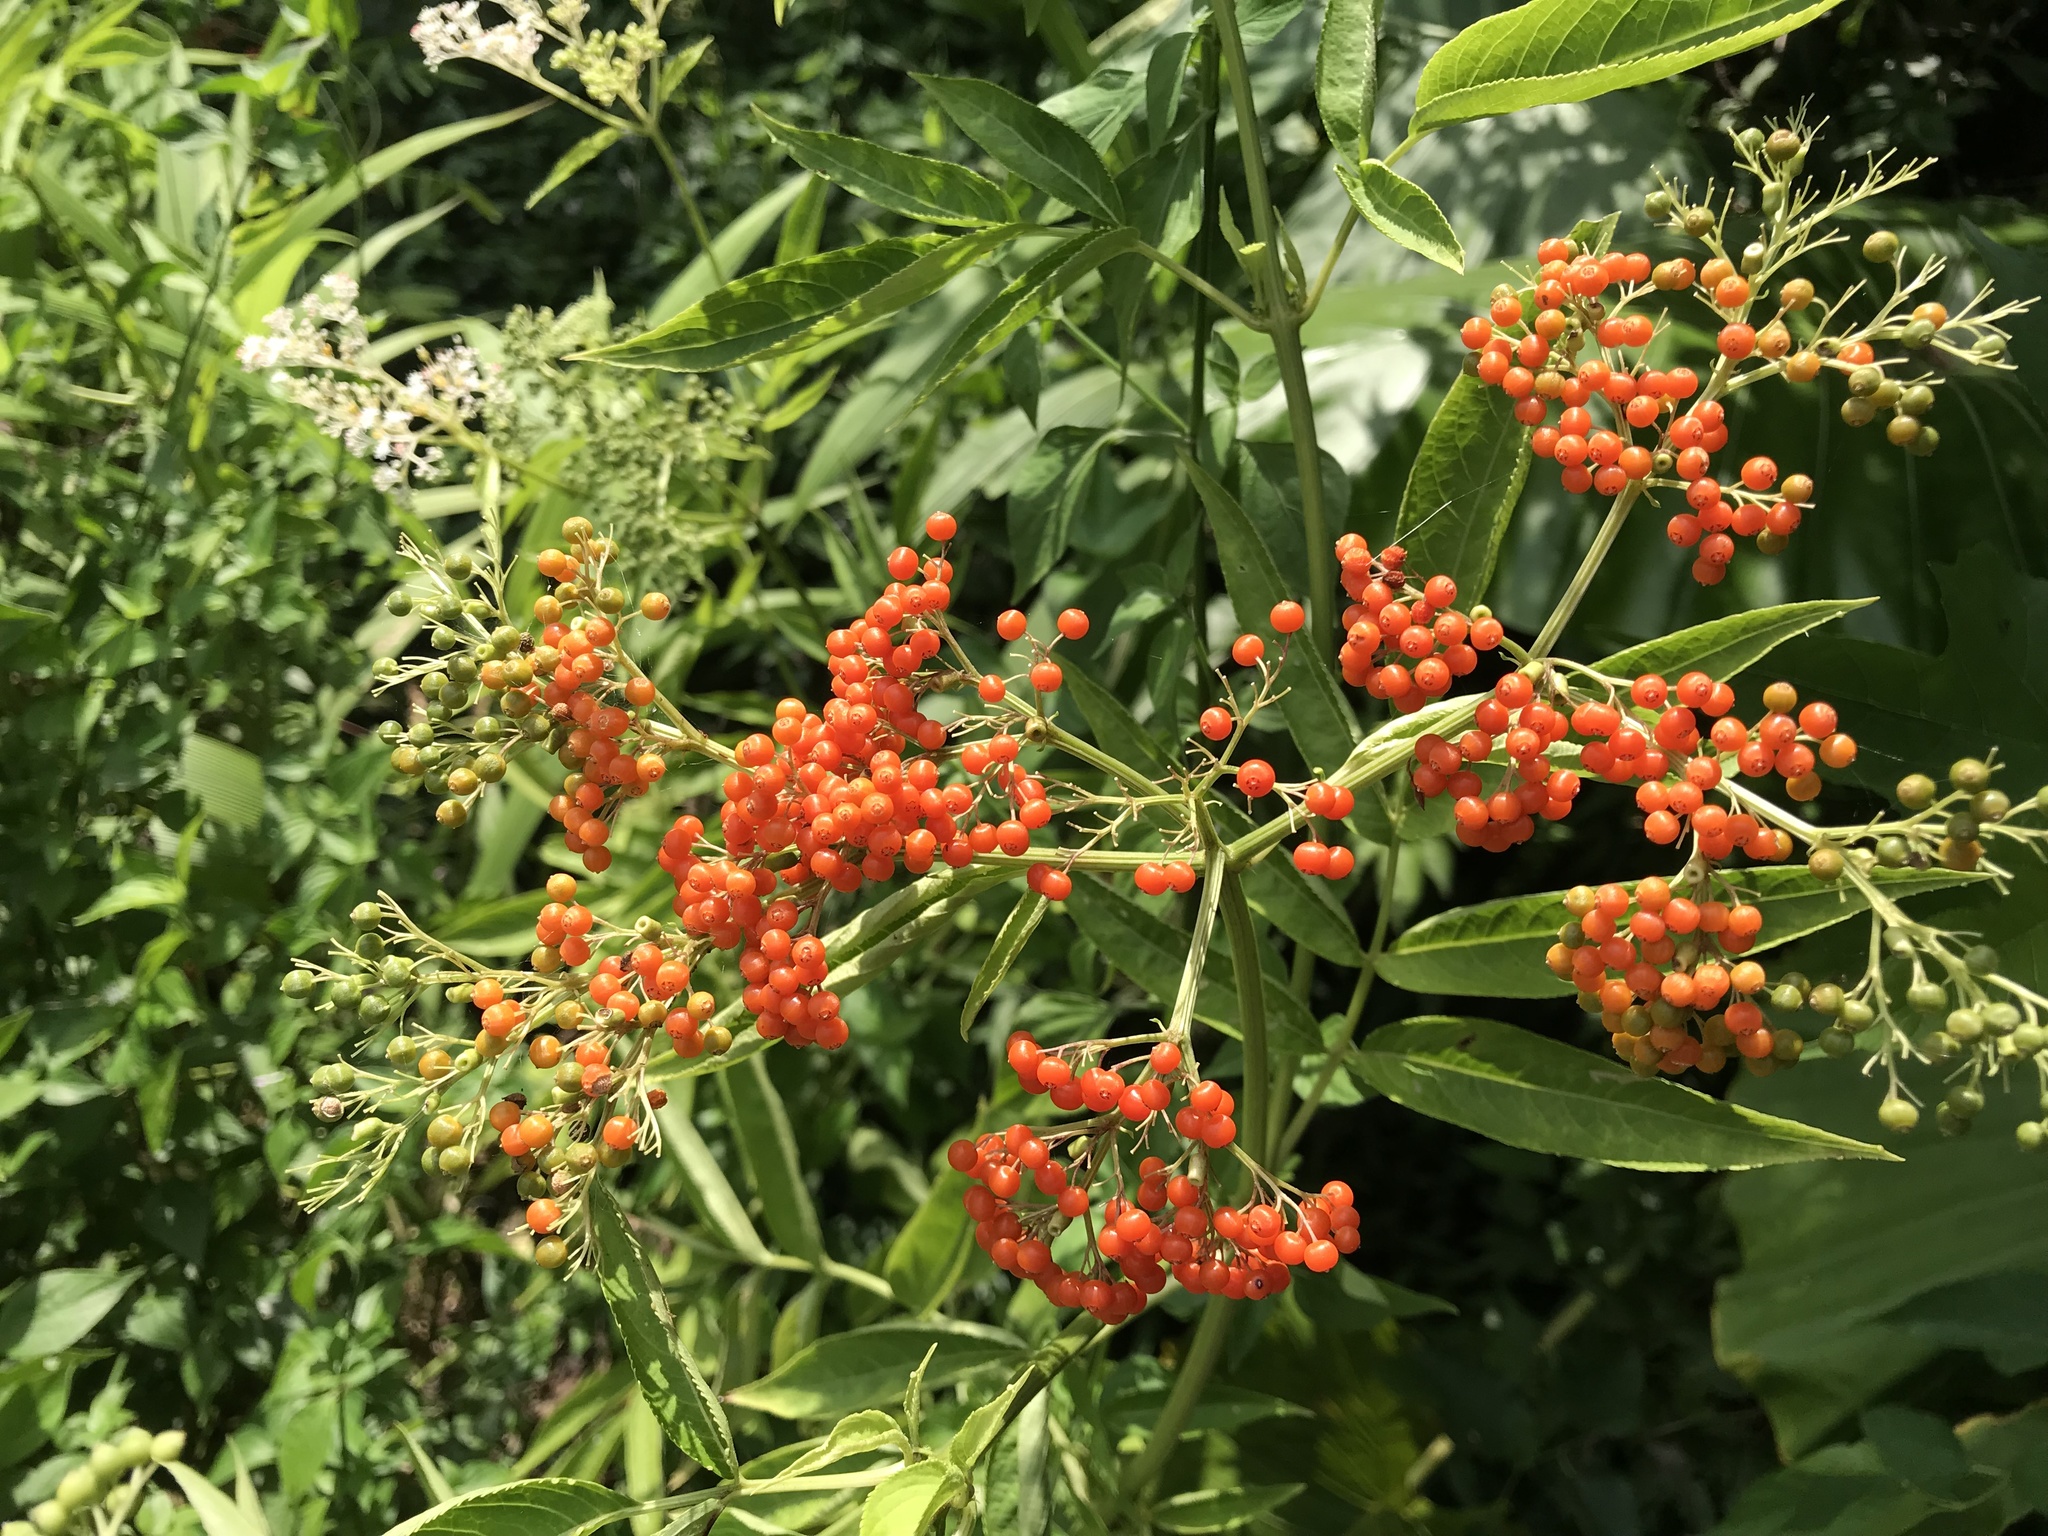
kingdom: Plantae
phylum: Tracheophyta
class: Magnoliopsida
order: Dipsacales
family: Viburnaceae
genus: Sambucus
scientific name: Sambucus javanica
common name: Chinese elder
